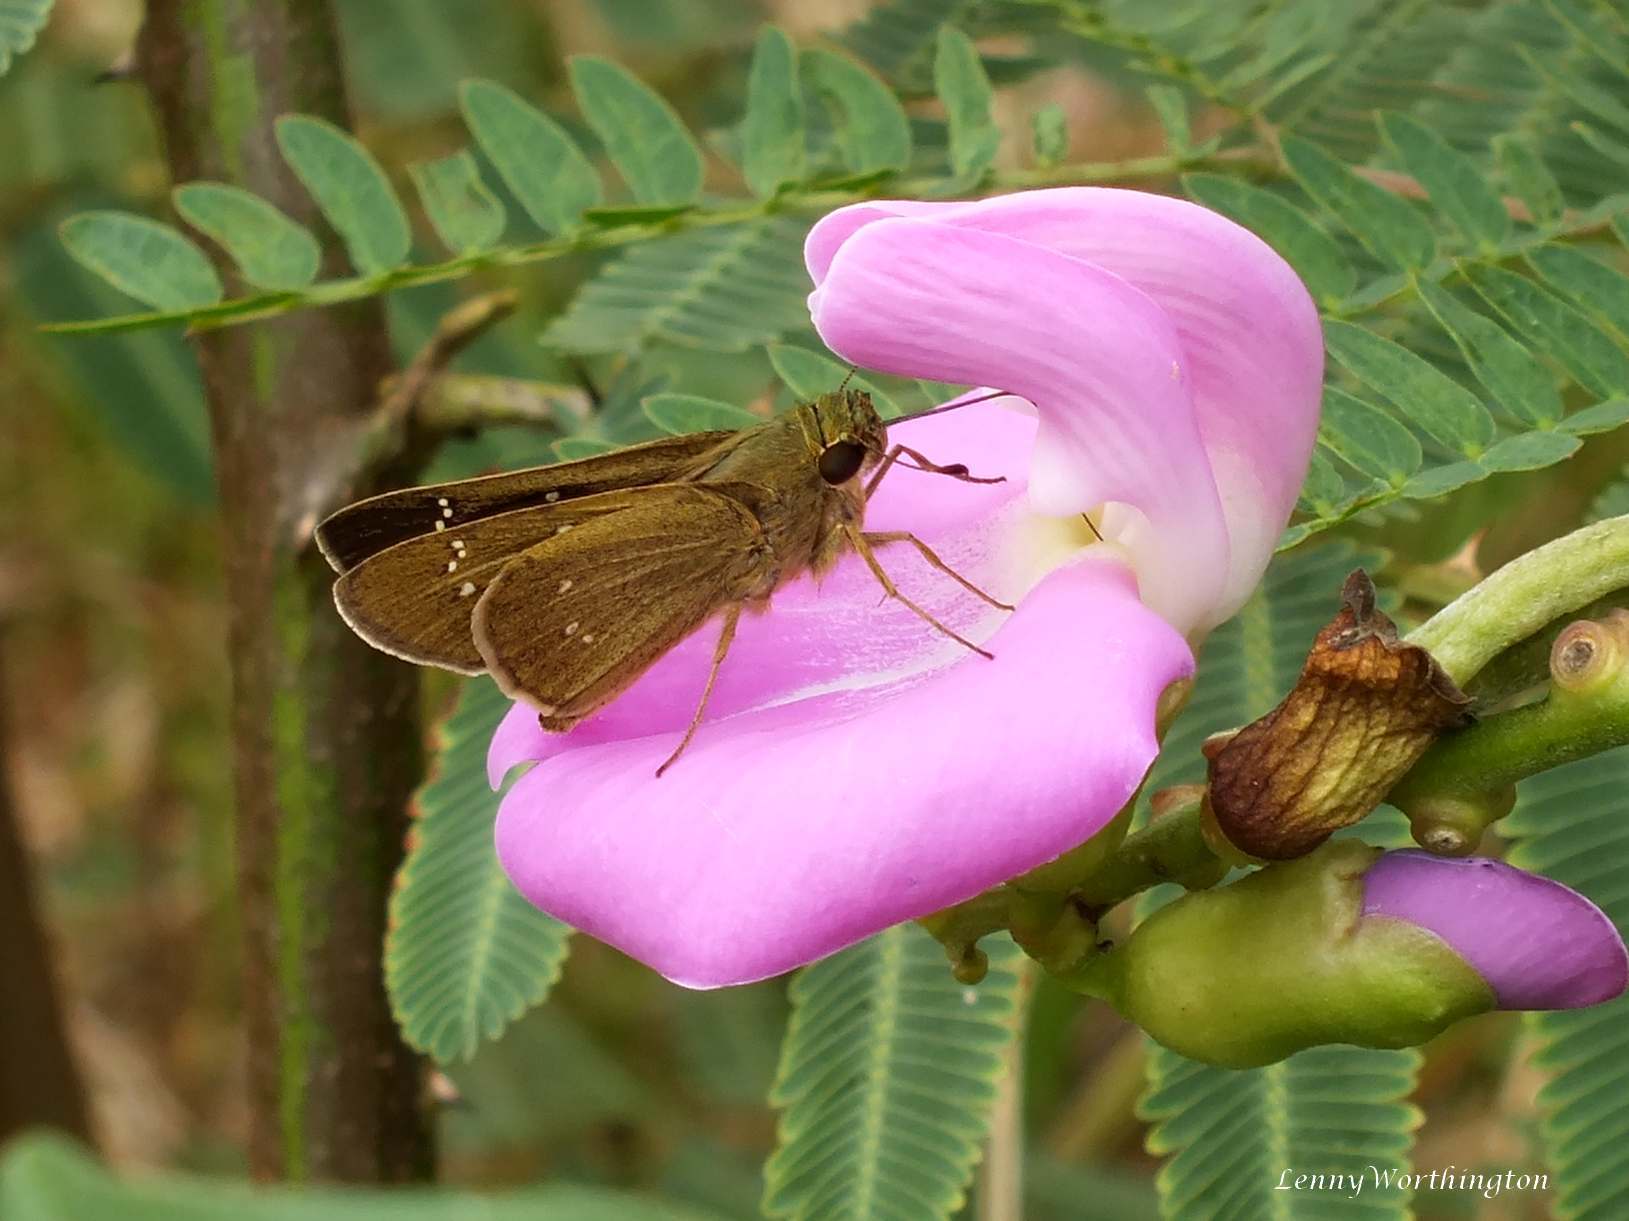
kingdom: Animalia
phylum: Arthropoda
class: Insecta
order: Lepidoptera
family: Hesperiidae
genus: Borbo
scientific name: Borbo cinnara
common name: Formosan swift
